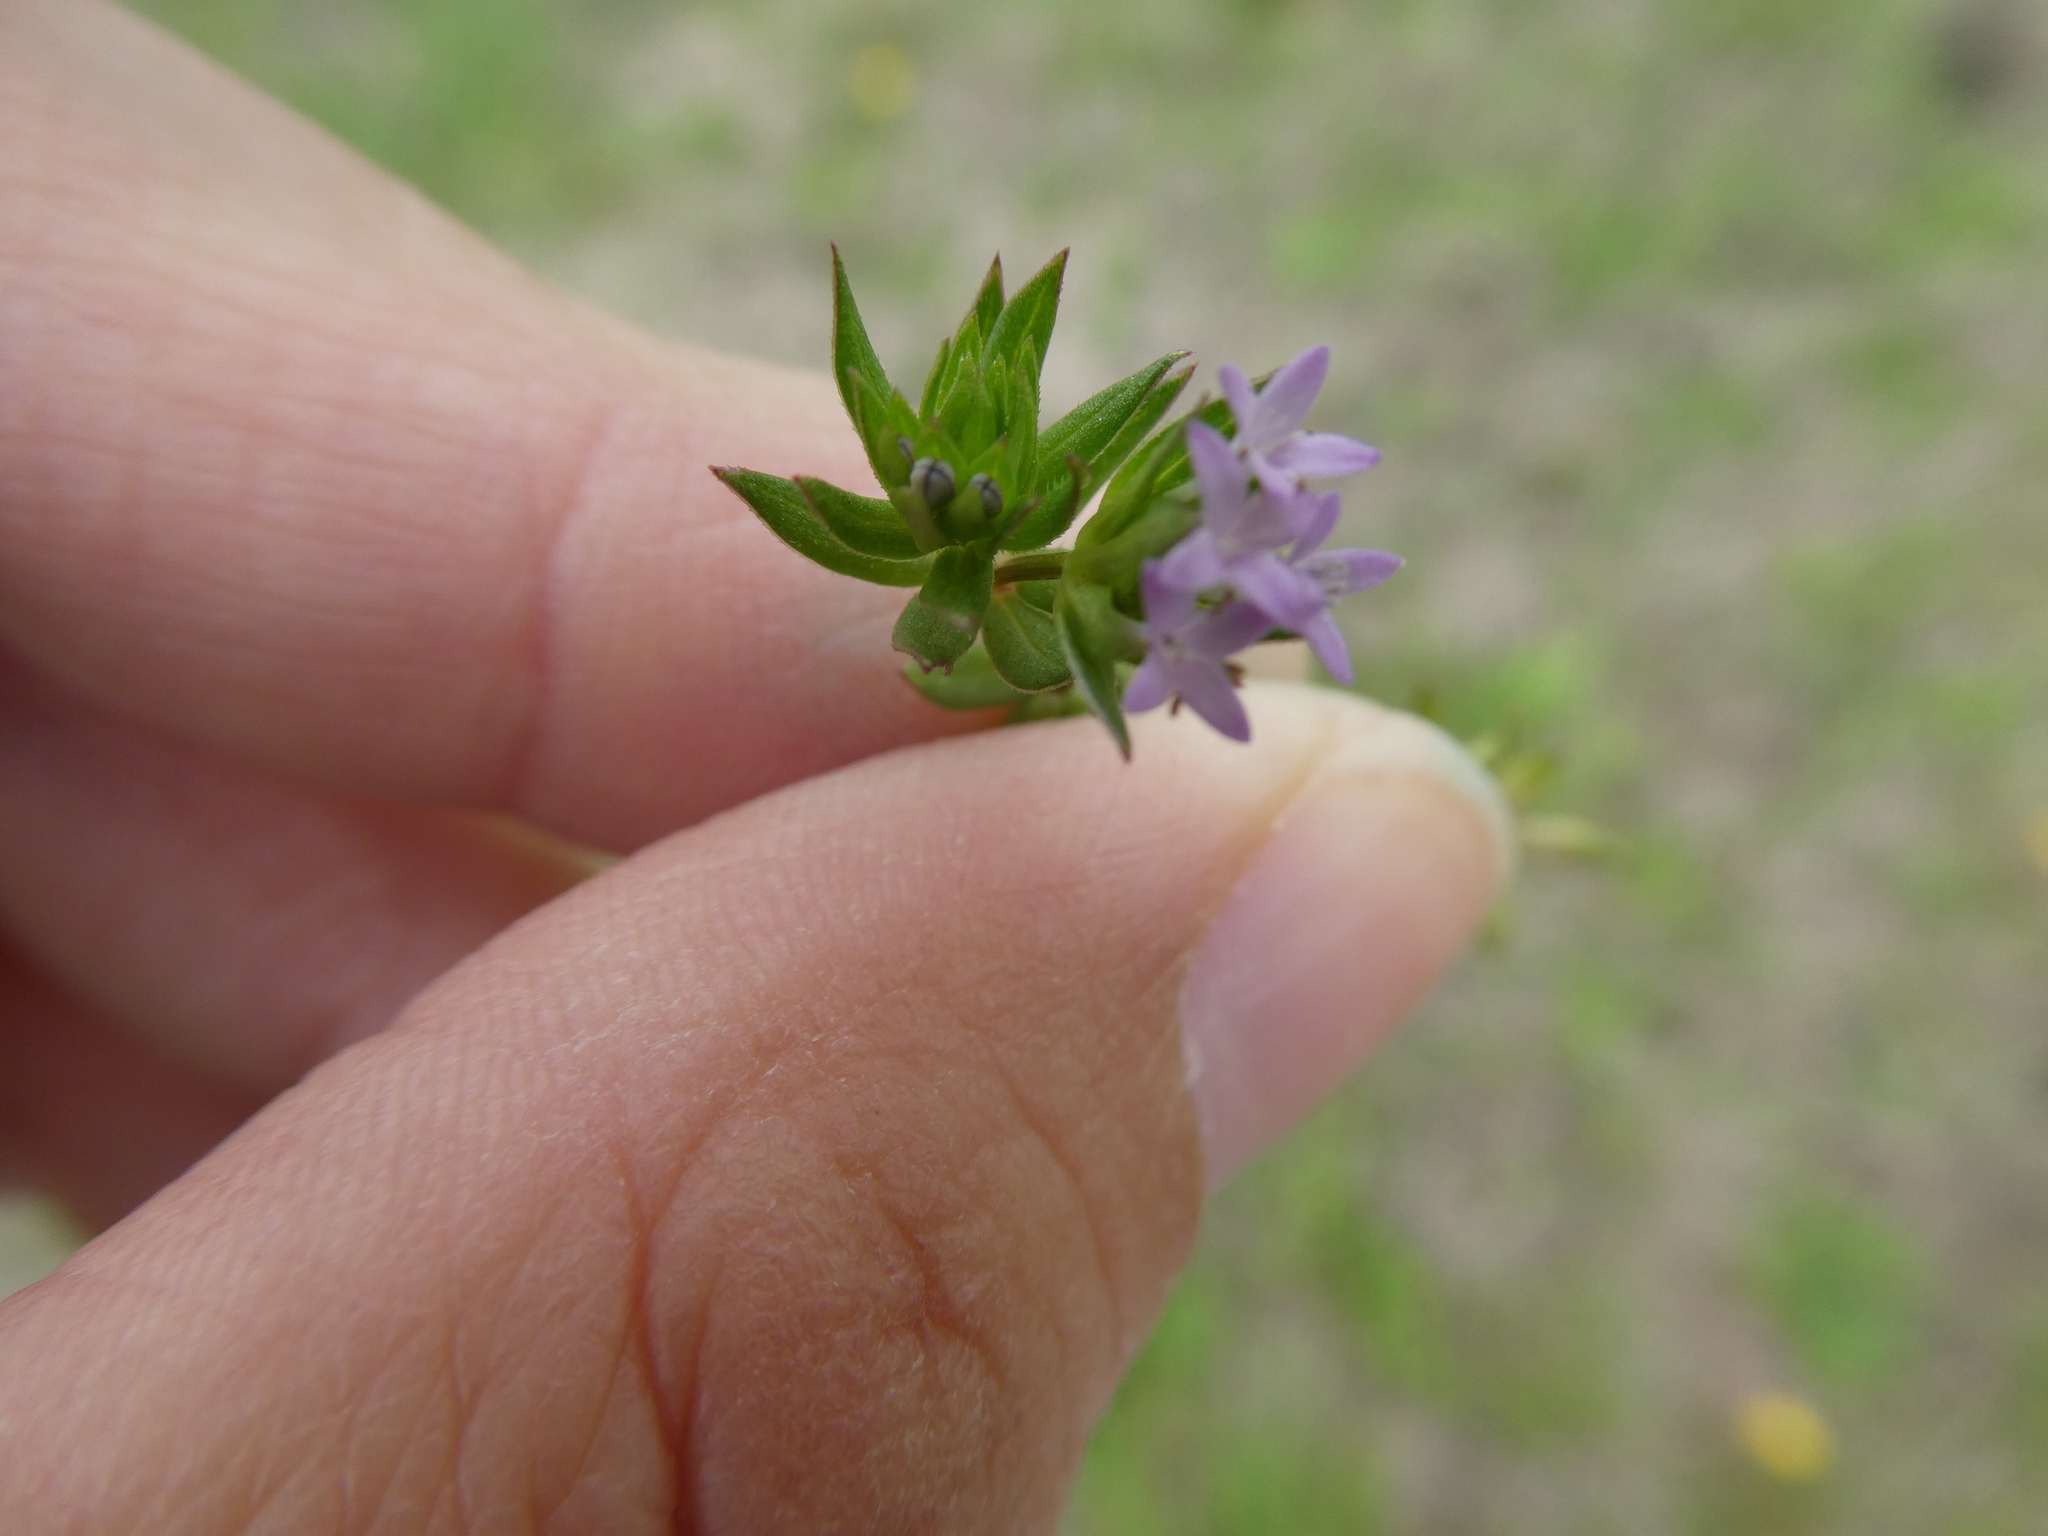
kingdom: Plantae
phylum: Tracheophyta
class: Magnoliopsida
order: Gentianales
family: Rubiaceae
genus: Sherardia
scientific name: Sherardia arvensis
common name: Field madder
